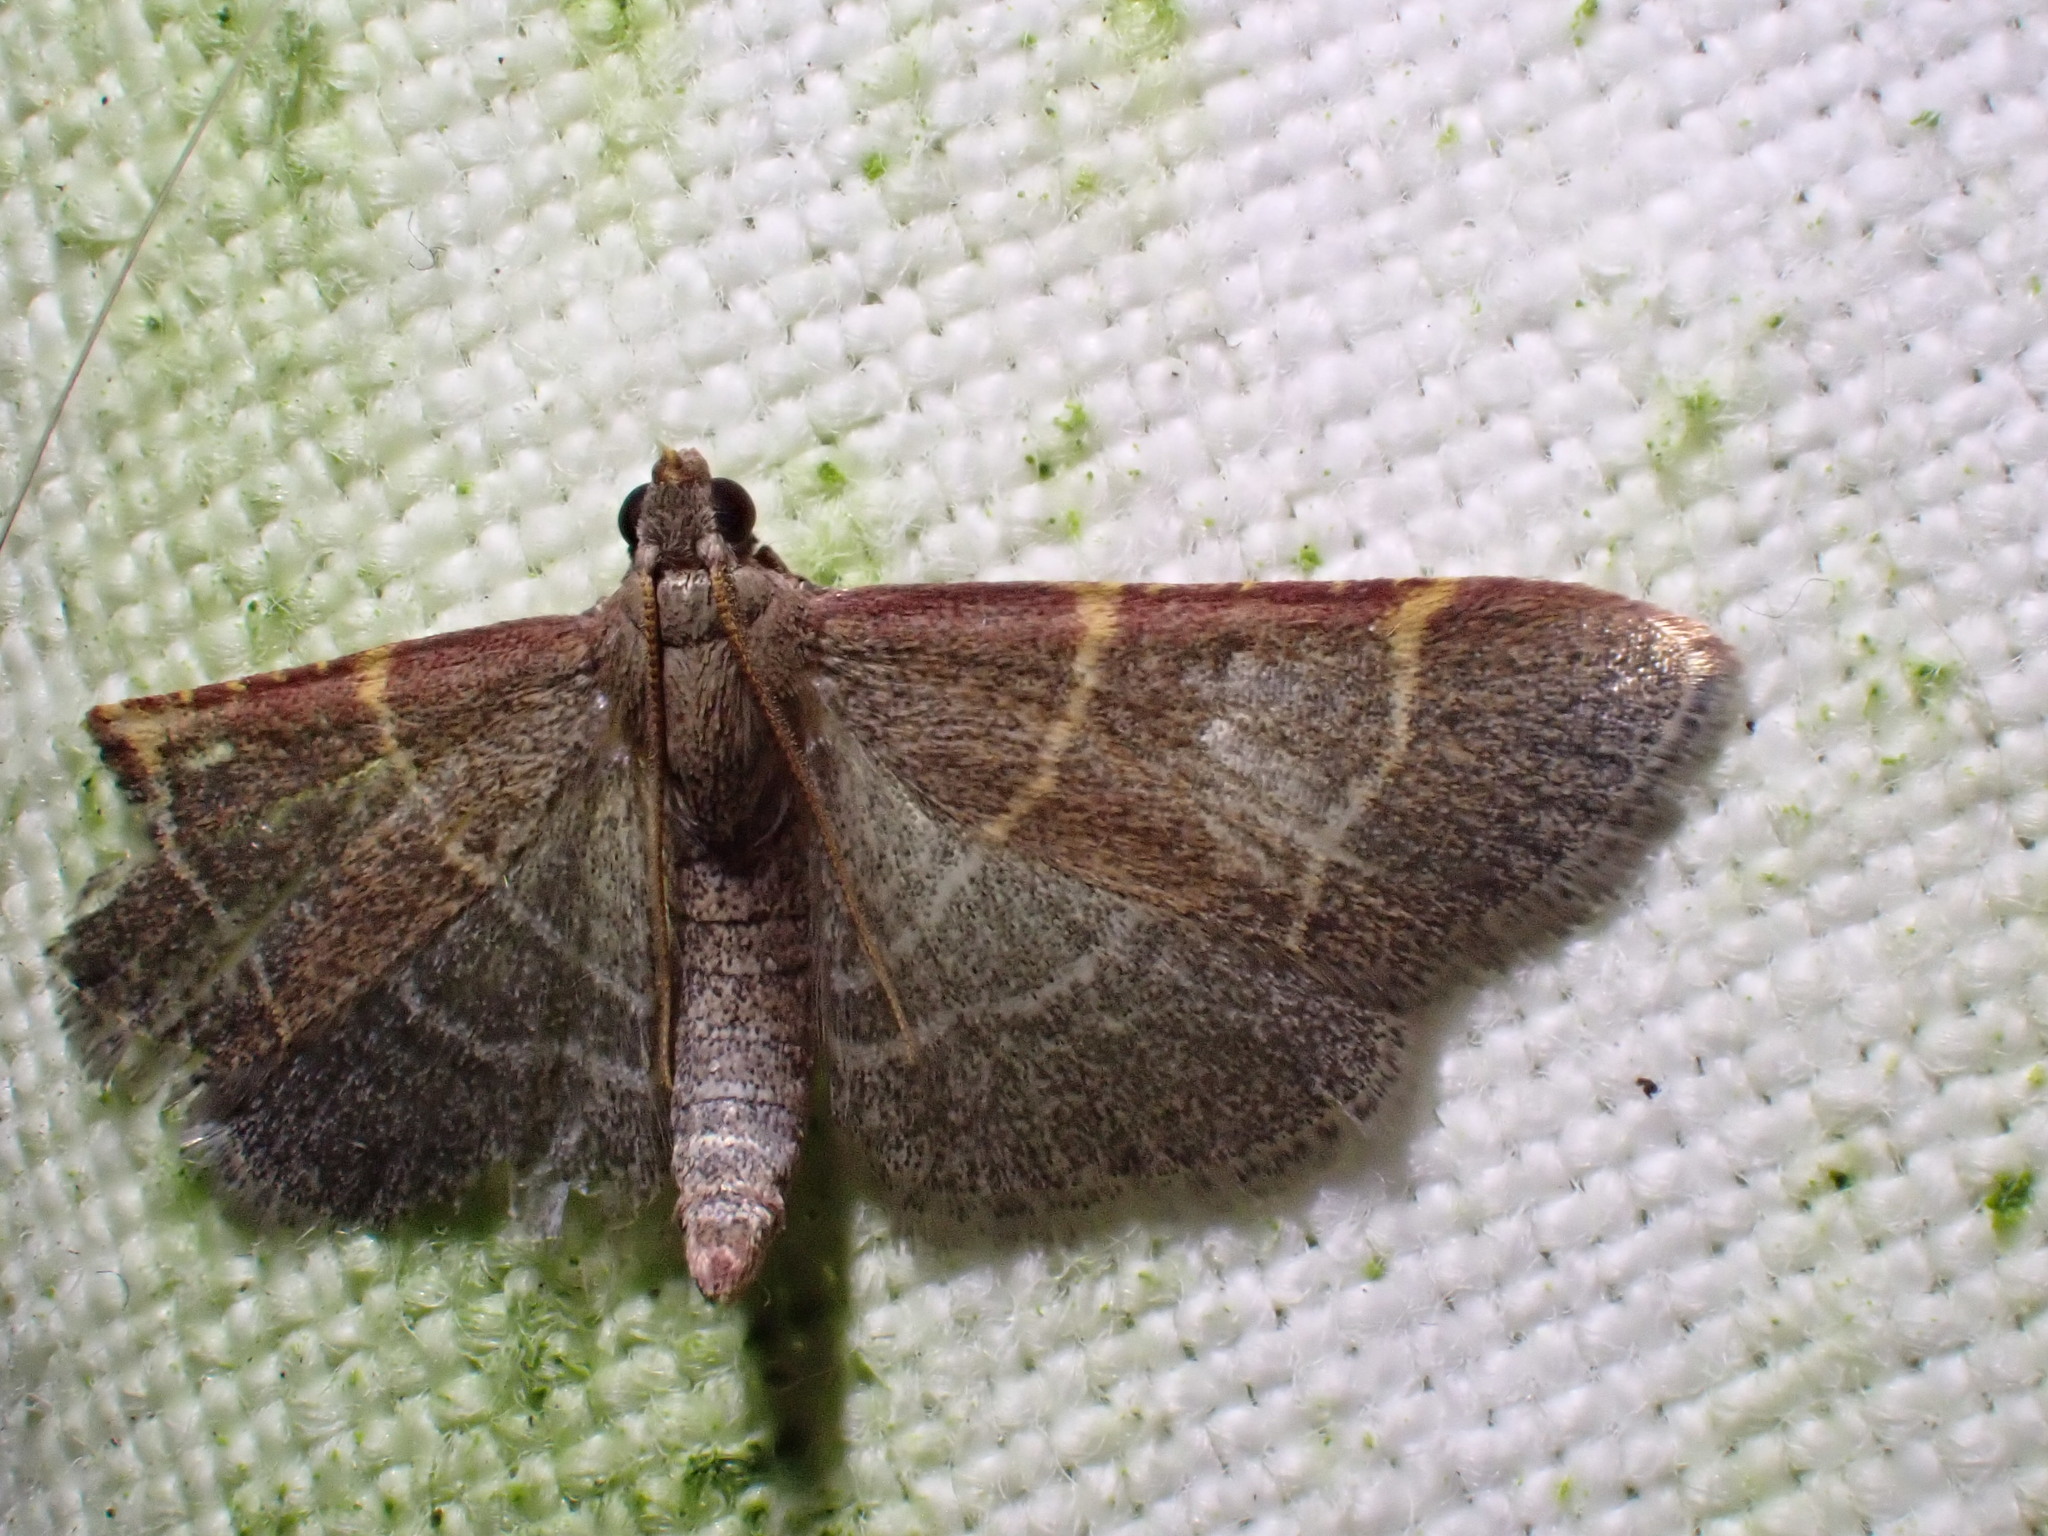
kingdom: Animalia
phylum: Arthropoda
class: Insecta
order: Lepidoptera
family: Pyralidae
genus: Hypsopygia
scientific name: Hypsopygia glaucinalis
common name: Double-striped tabby
